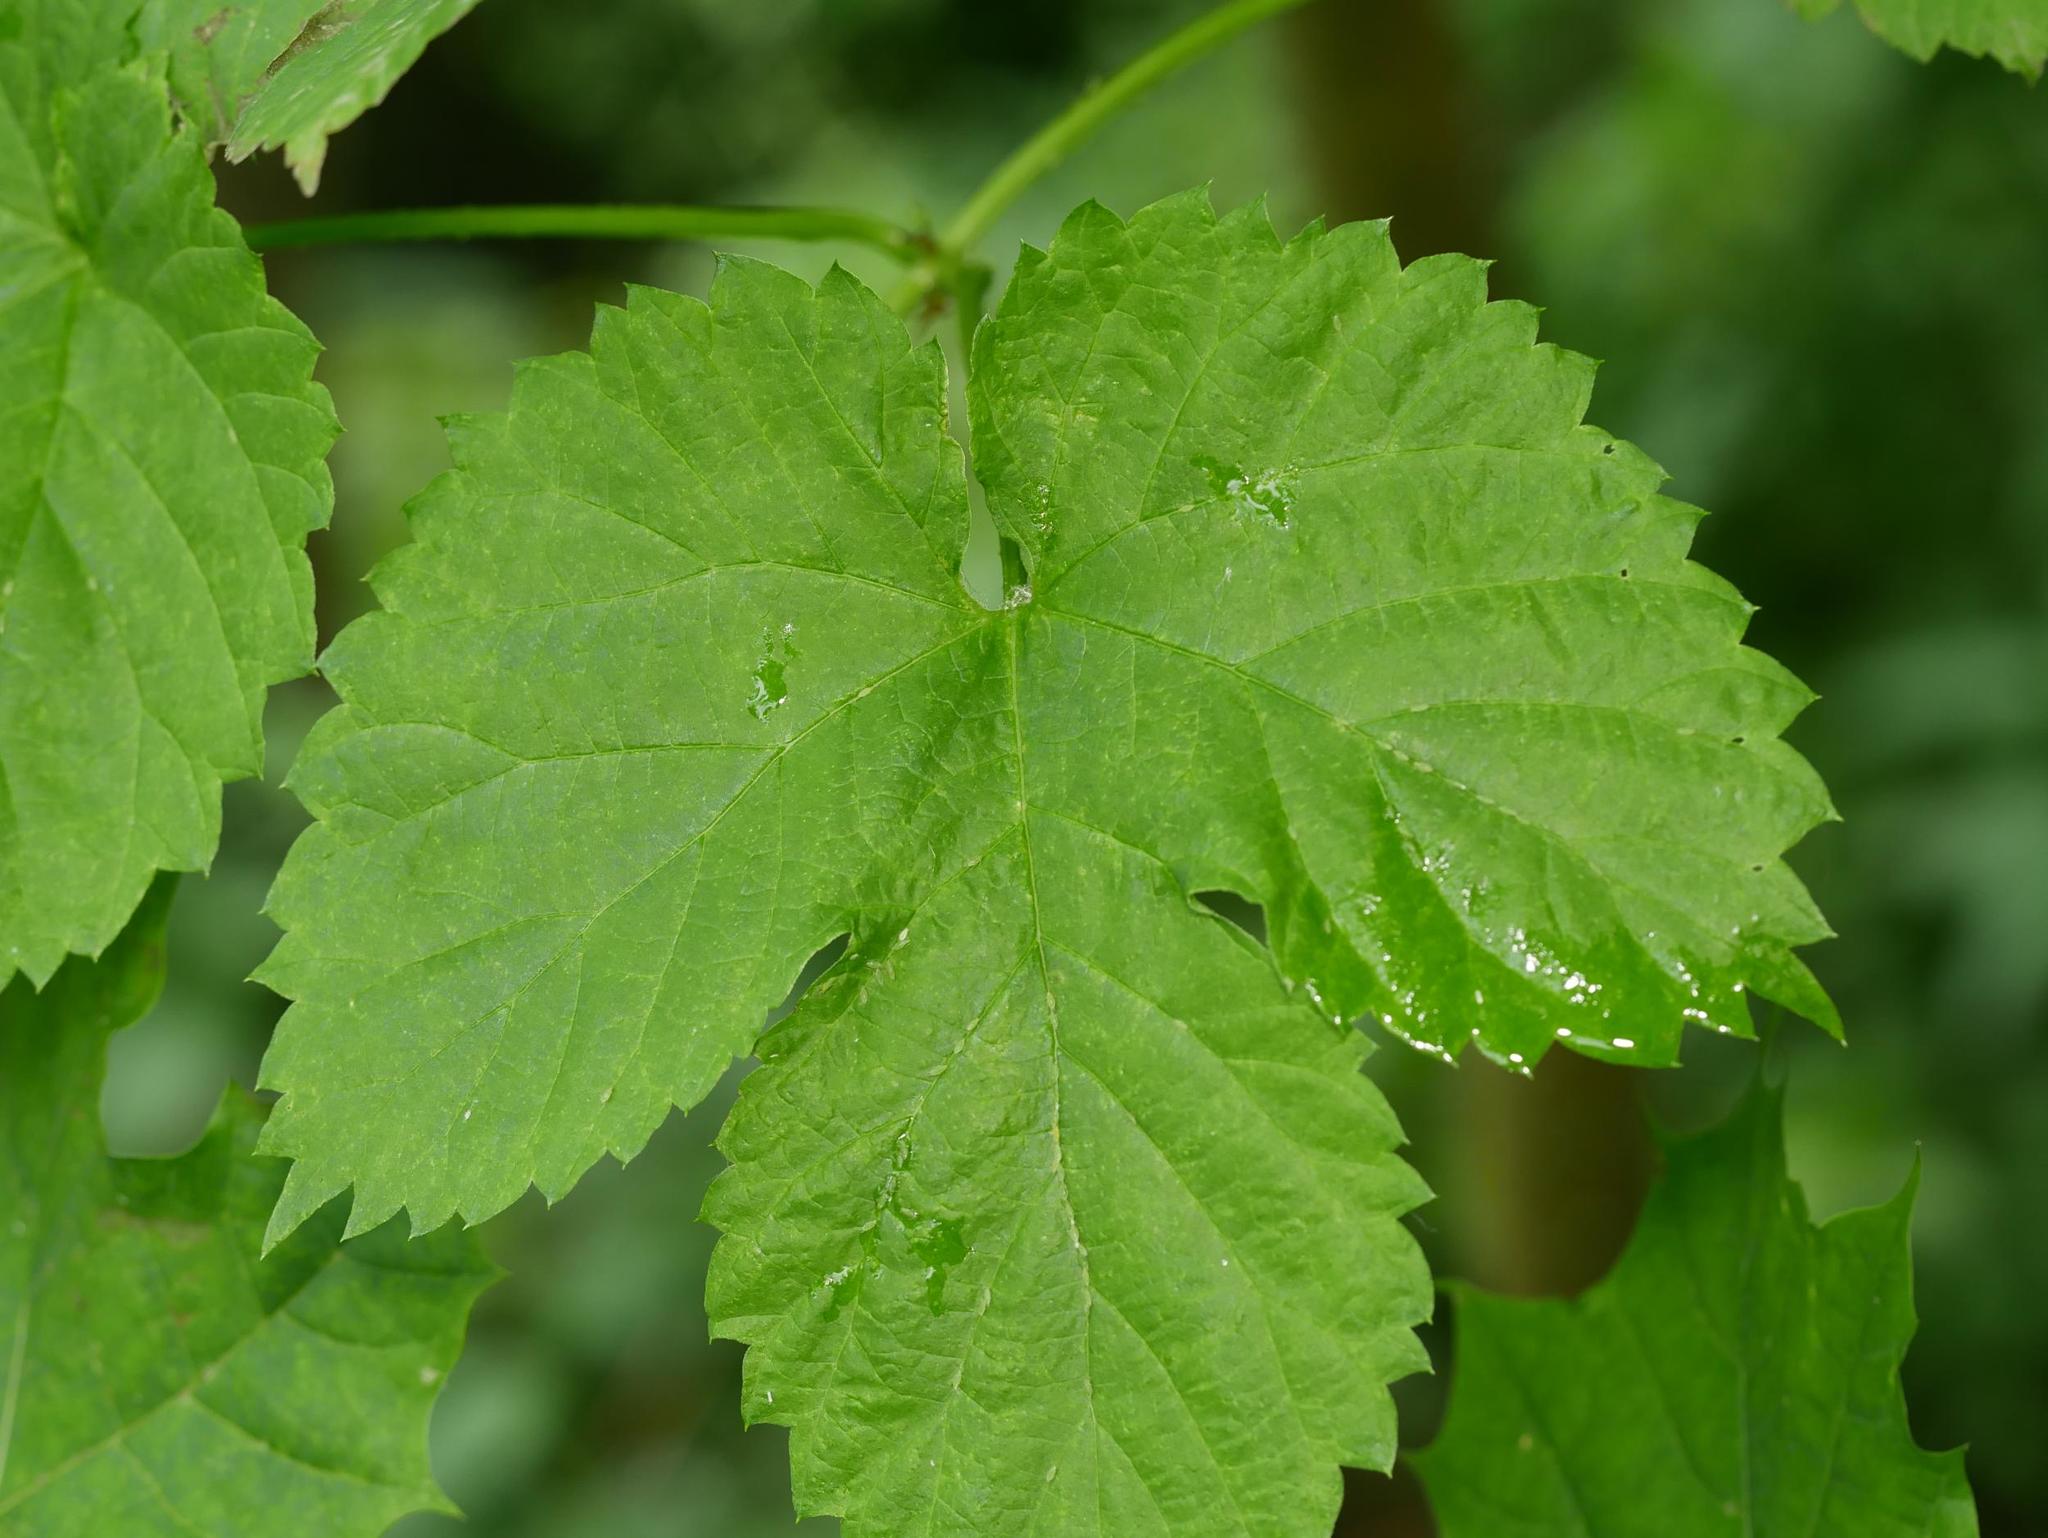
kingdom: Plantae
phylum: Tracheophyta
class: Magnoliopsida
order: Rosales
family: Cannabaceae
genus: Humulus
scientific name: Humulus lupulus
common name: Hop
